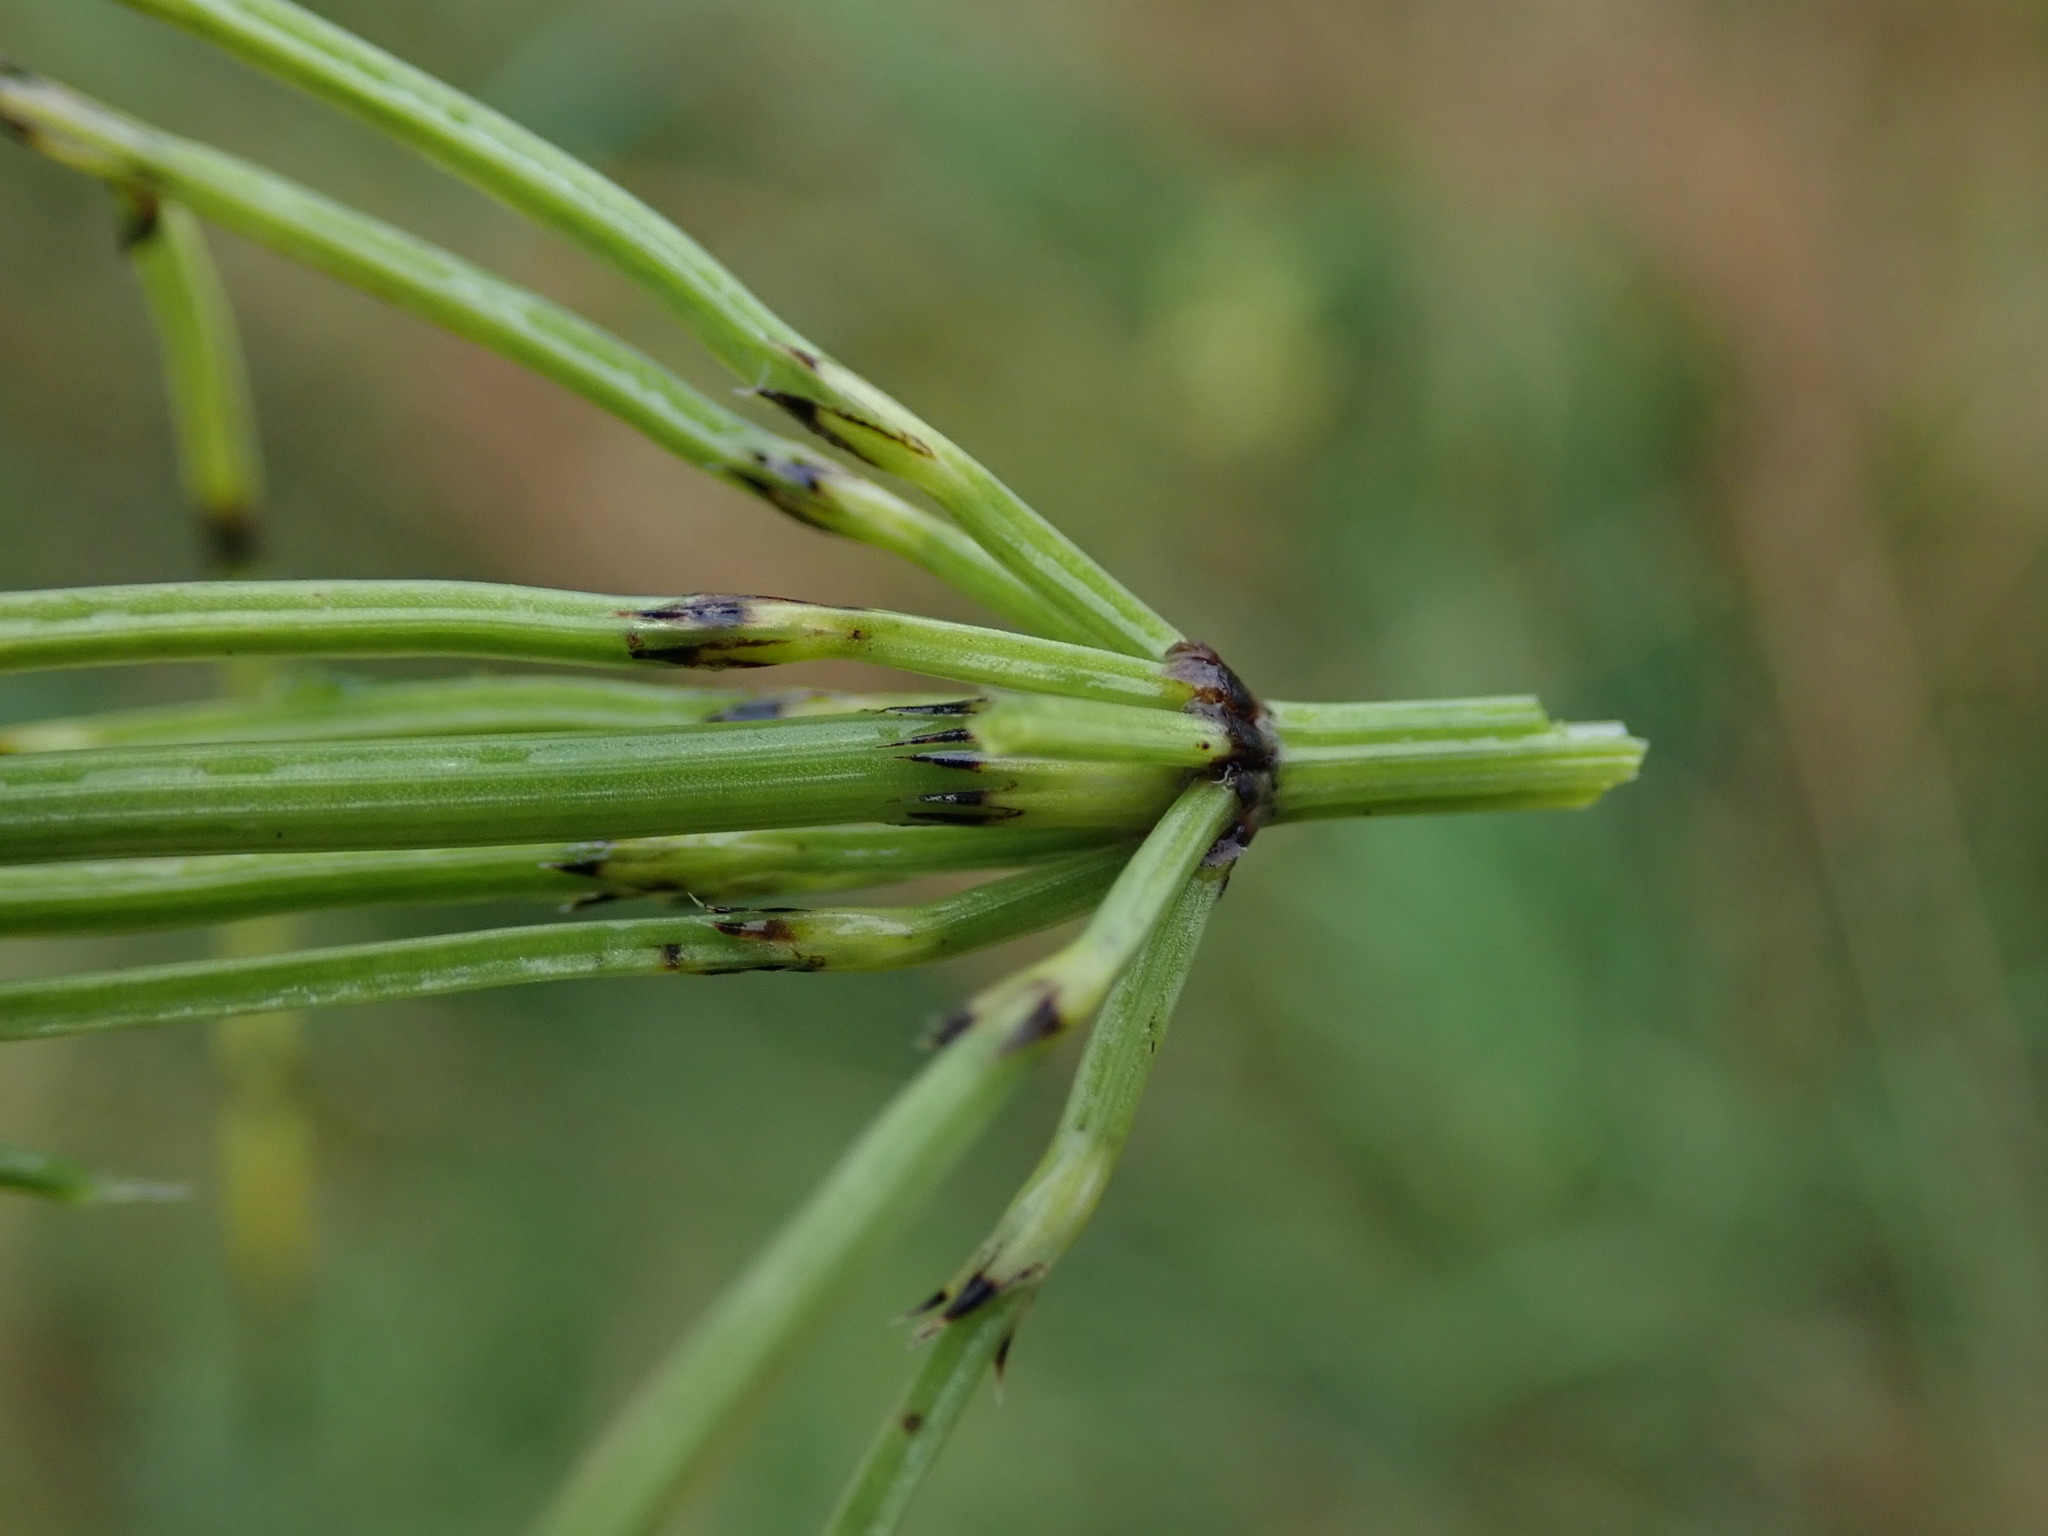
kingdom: Plantae
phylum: Tracheophyta
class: Polypodiopsida
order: Equisetales
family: Equisetaceae
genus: Equisetum
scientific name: Equisetum arvense
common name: Field horsetail
